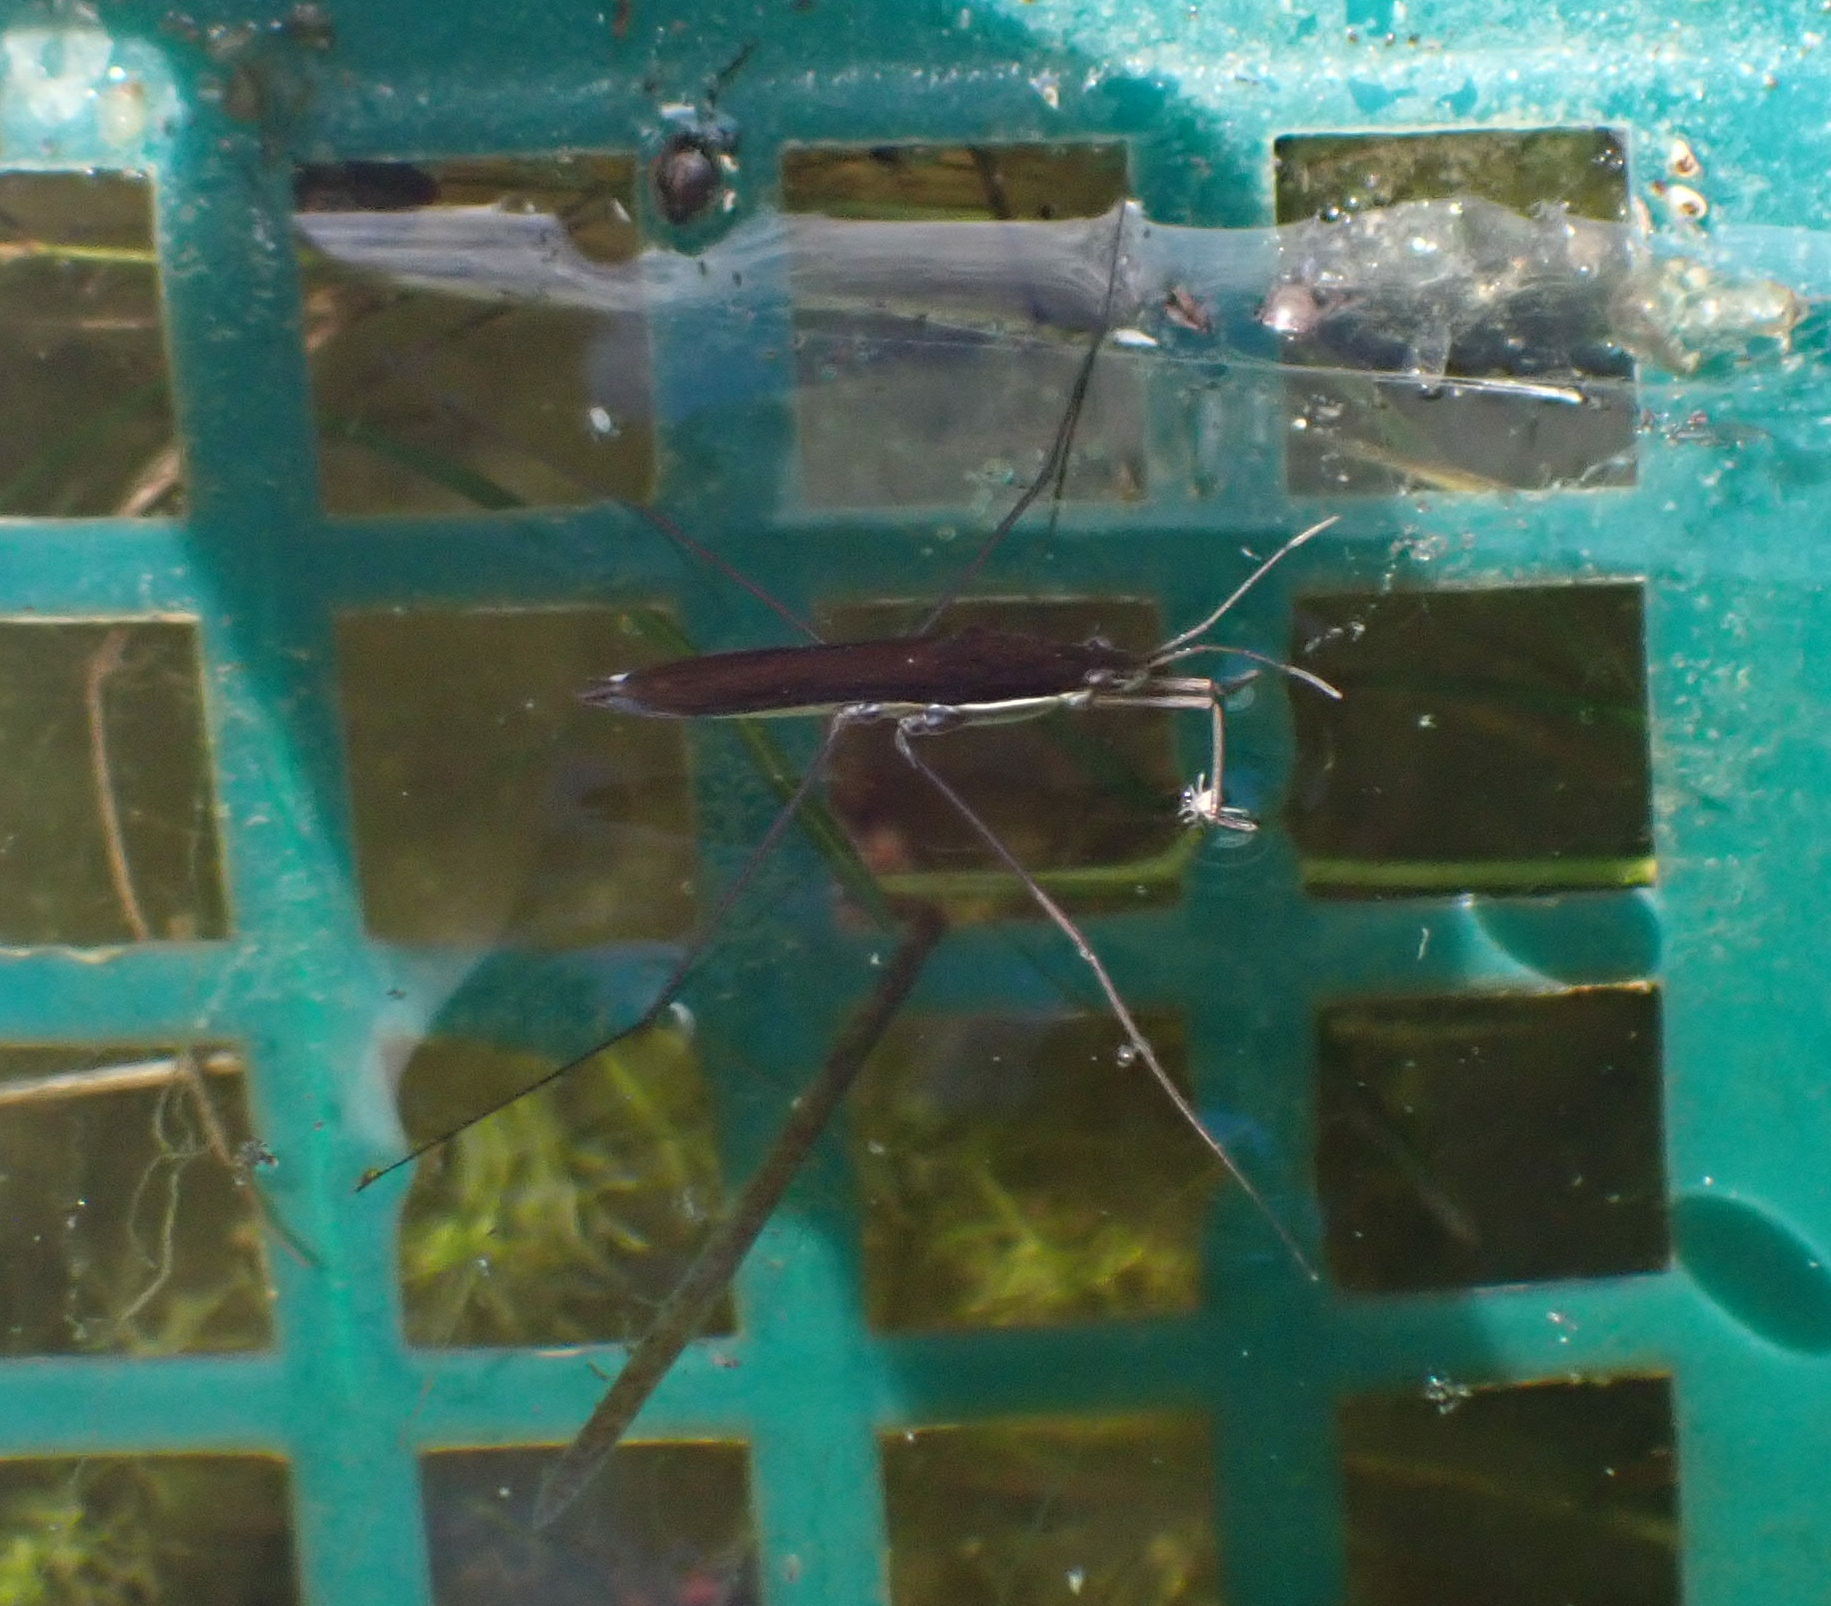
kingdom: Animalia
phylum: Arthropoda
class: Insecta
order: Hemiptera
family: Gerridae
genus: Limnoporus
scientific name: Limnoporus dissortis
